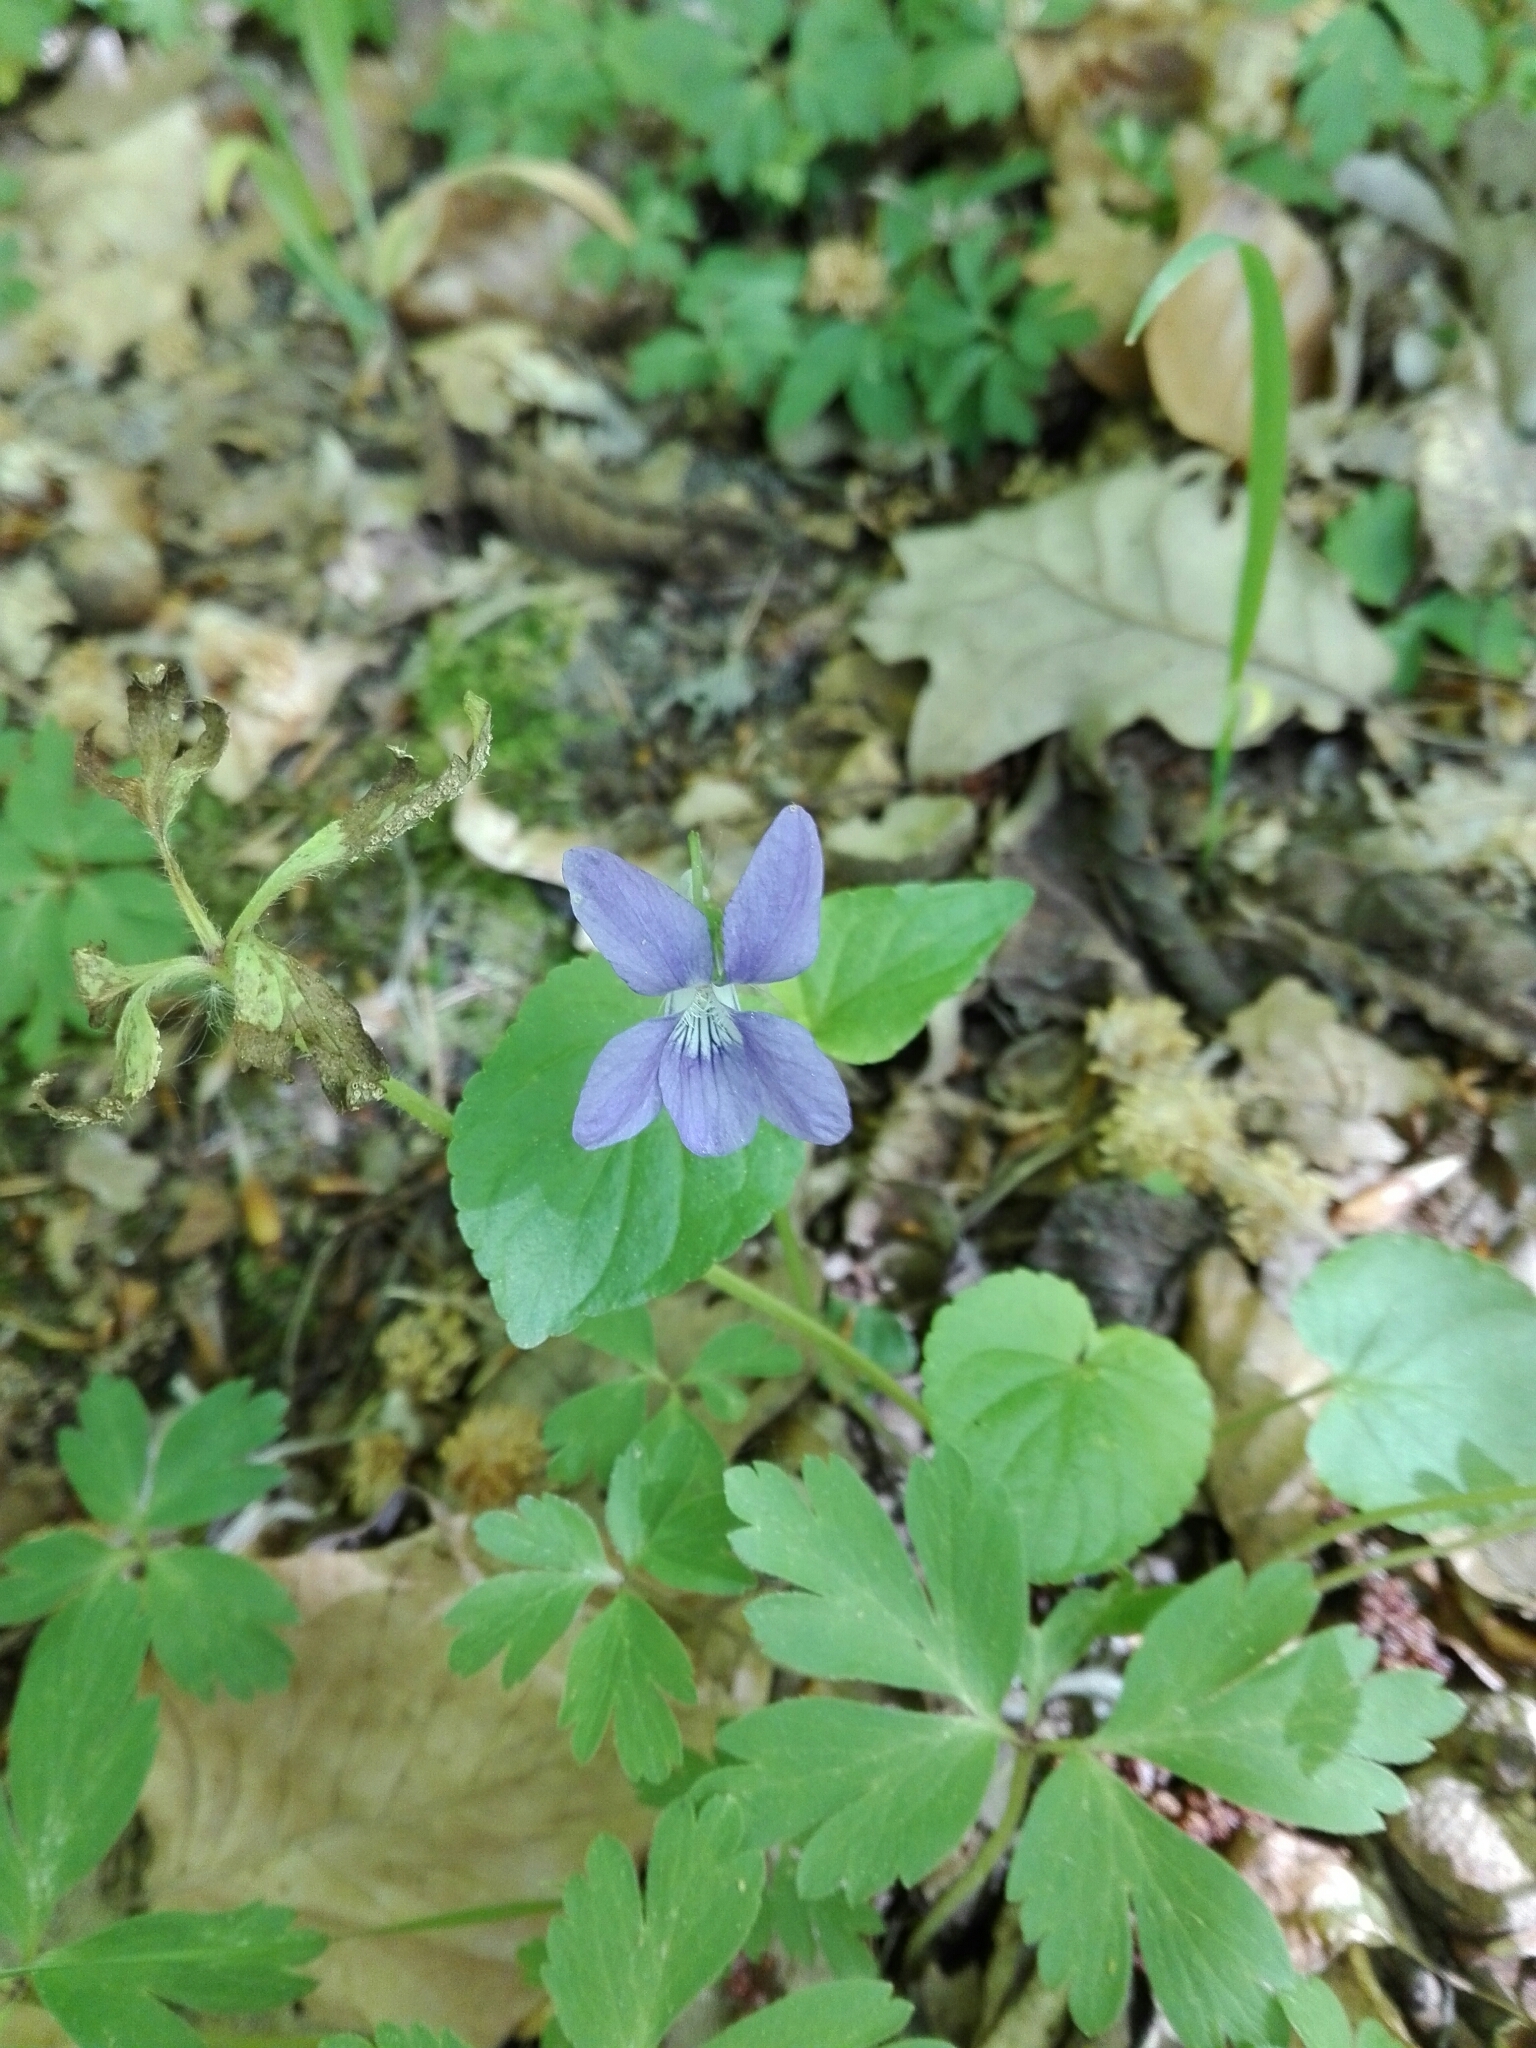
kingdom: Plantae
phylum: Tracheophyta
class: Magnoliopsida
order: Malpighiales
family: Violaceae
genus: Viola
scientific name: Viola riviniana
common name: Common dog-violet
